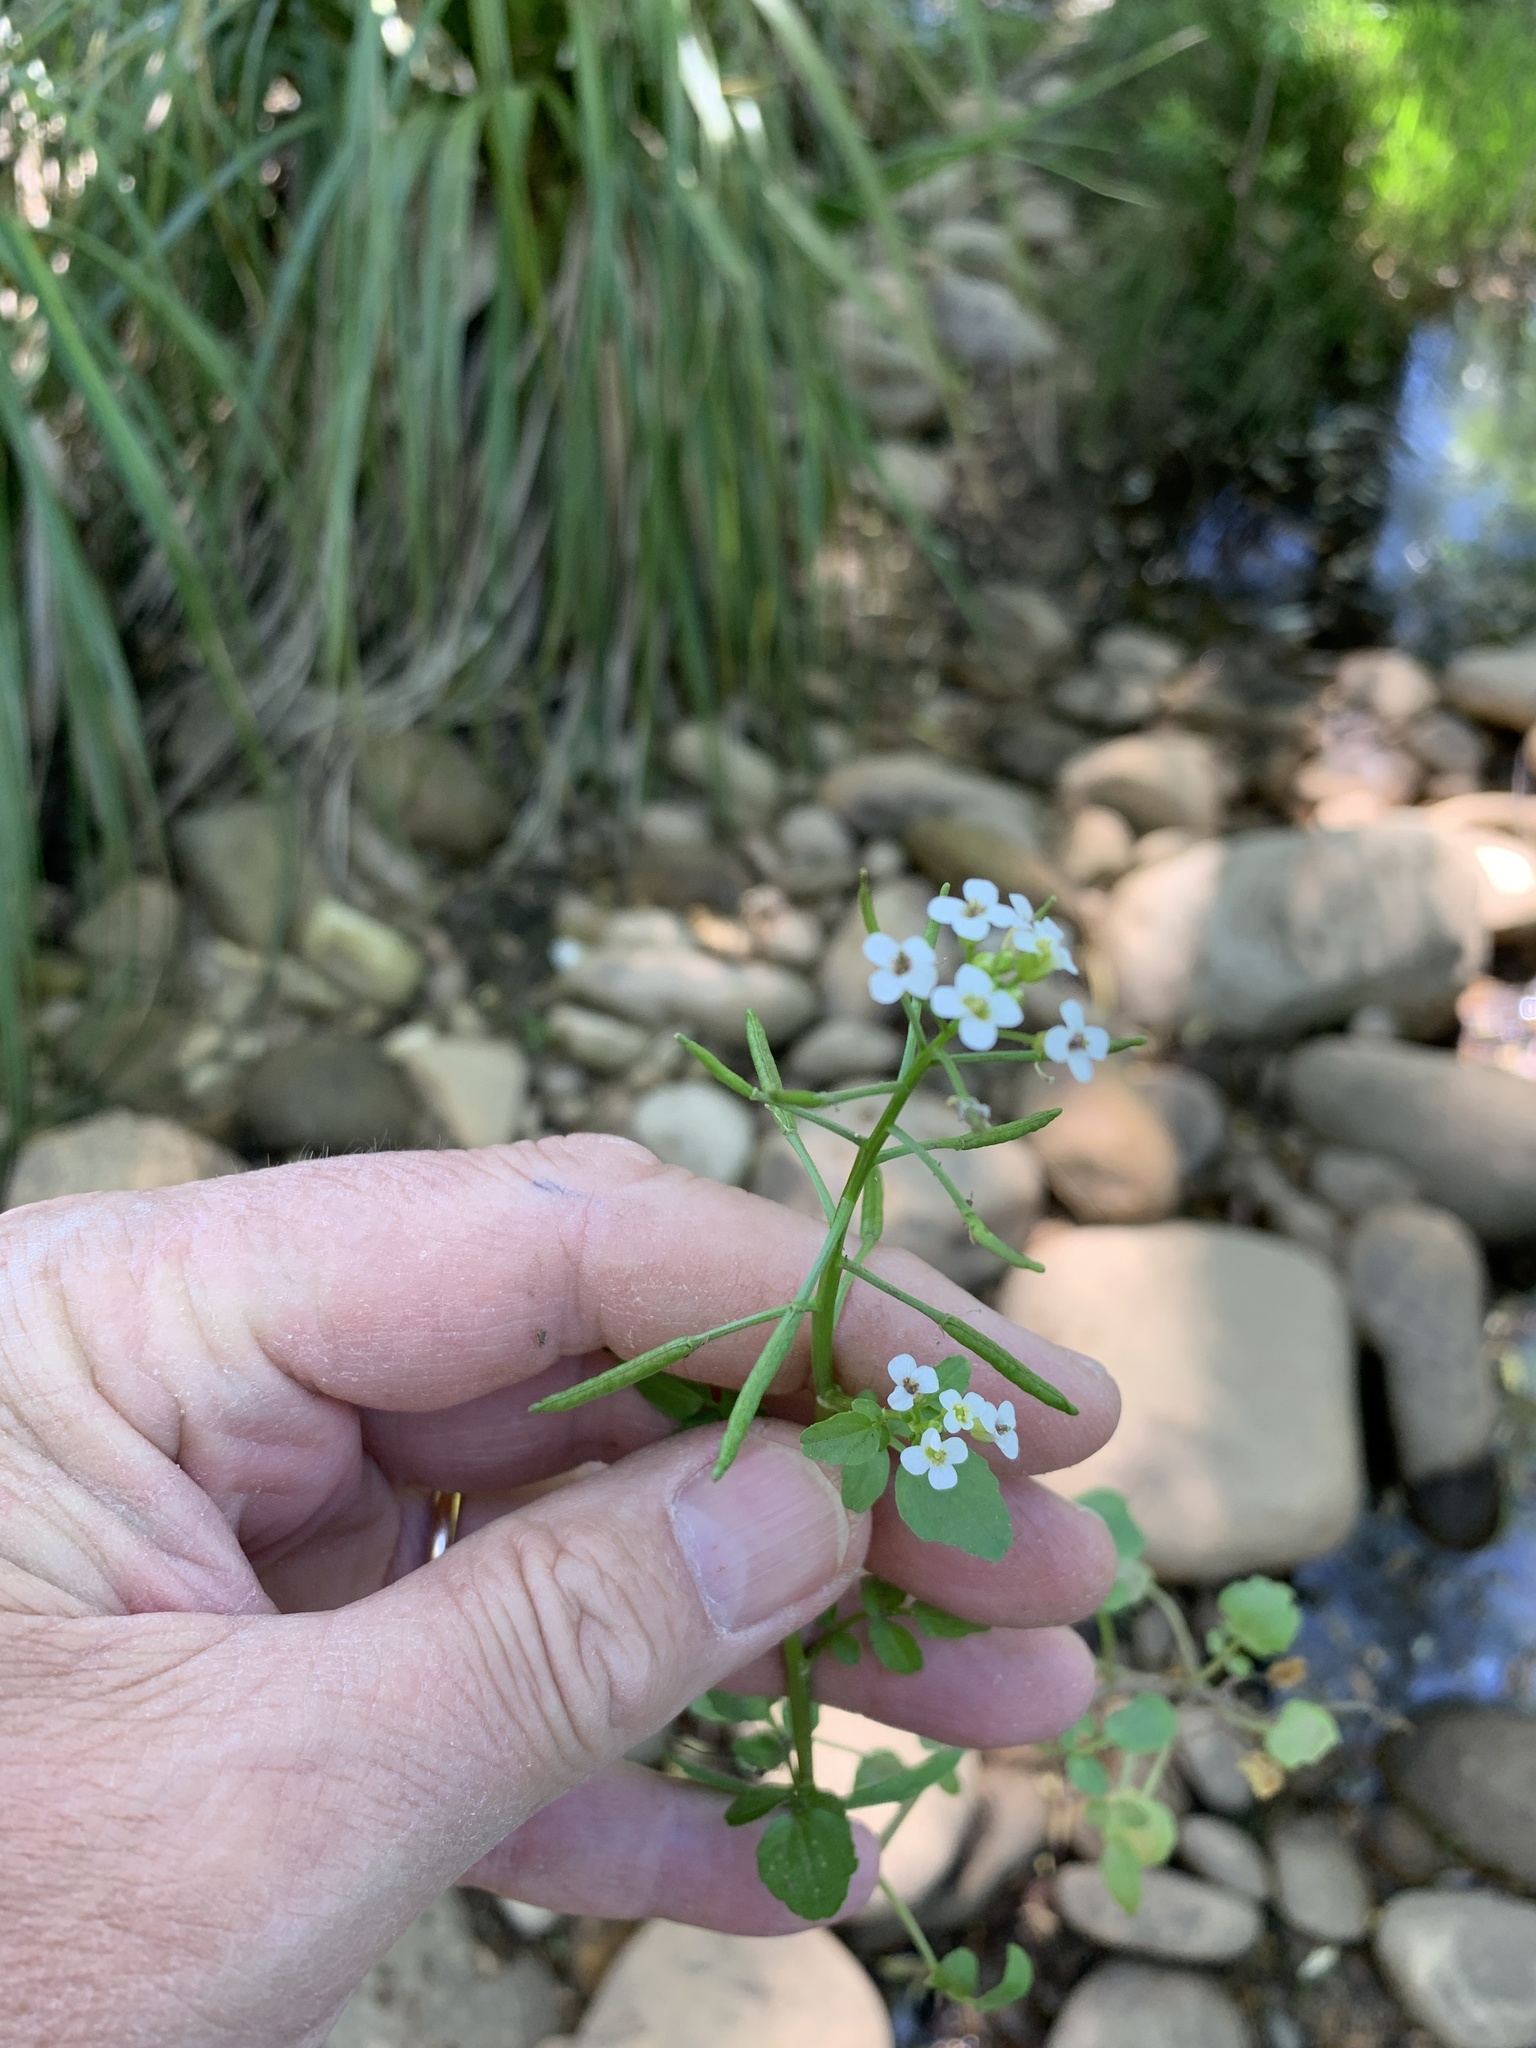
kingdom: Plantae
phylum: Tracheophyta
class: Magnoliopsida
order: Brassicales
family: Brassicaceae
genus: Nasturtium
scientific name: Nasturtium officinale
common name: Watercress
